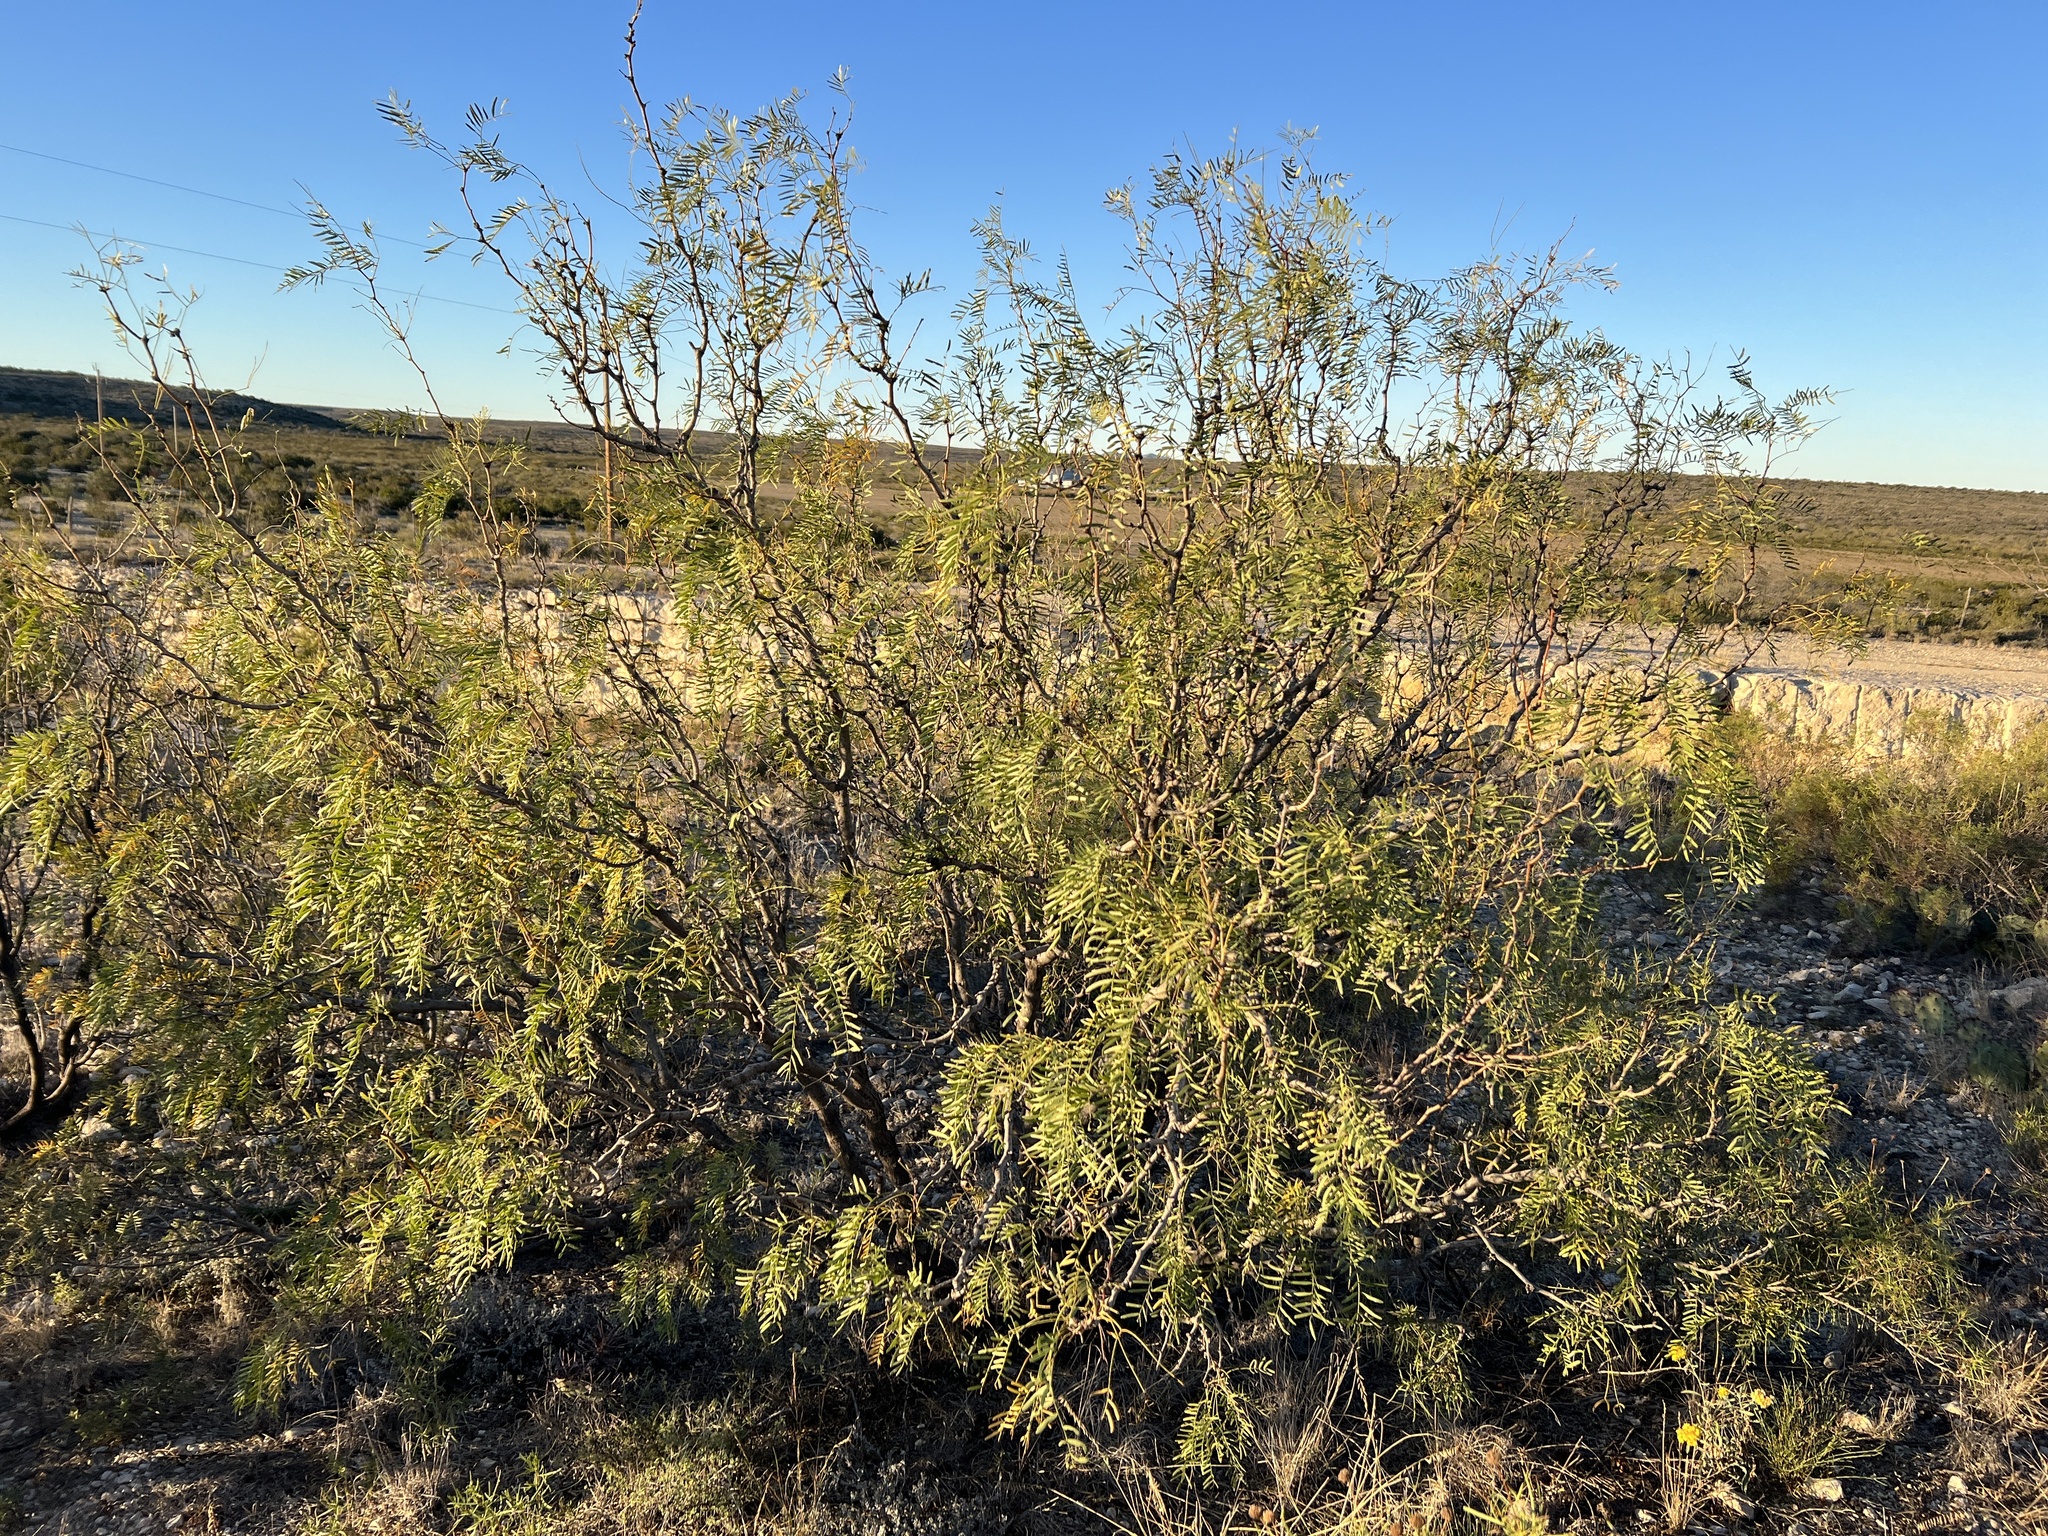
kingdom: Plantae
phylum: Tracheophyta
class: Magnoliopsida
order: Fabales
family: Fabaceae
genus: Prosopis
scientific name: Prosopis glandulosa
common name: Honey mesquite
